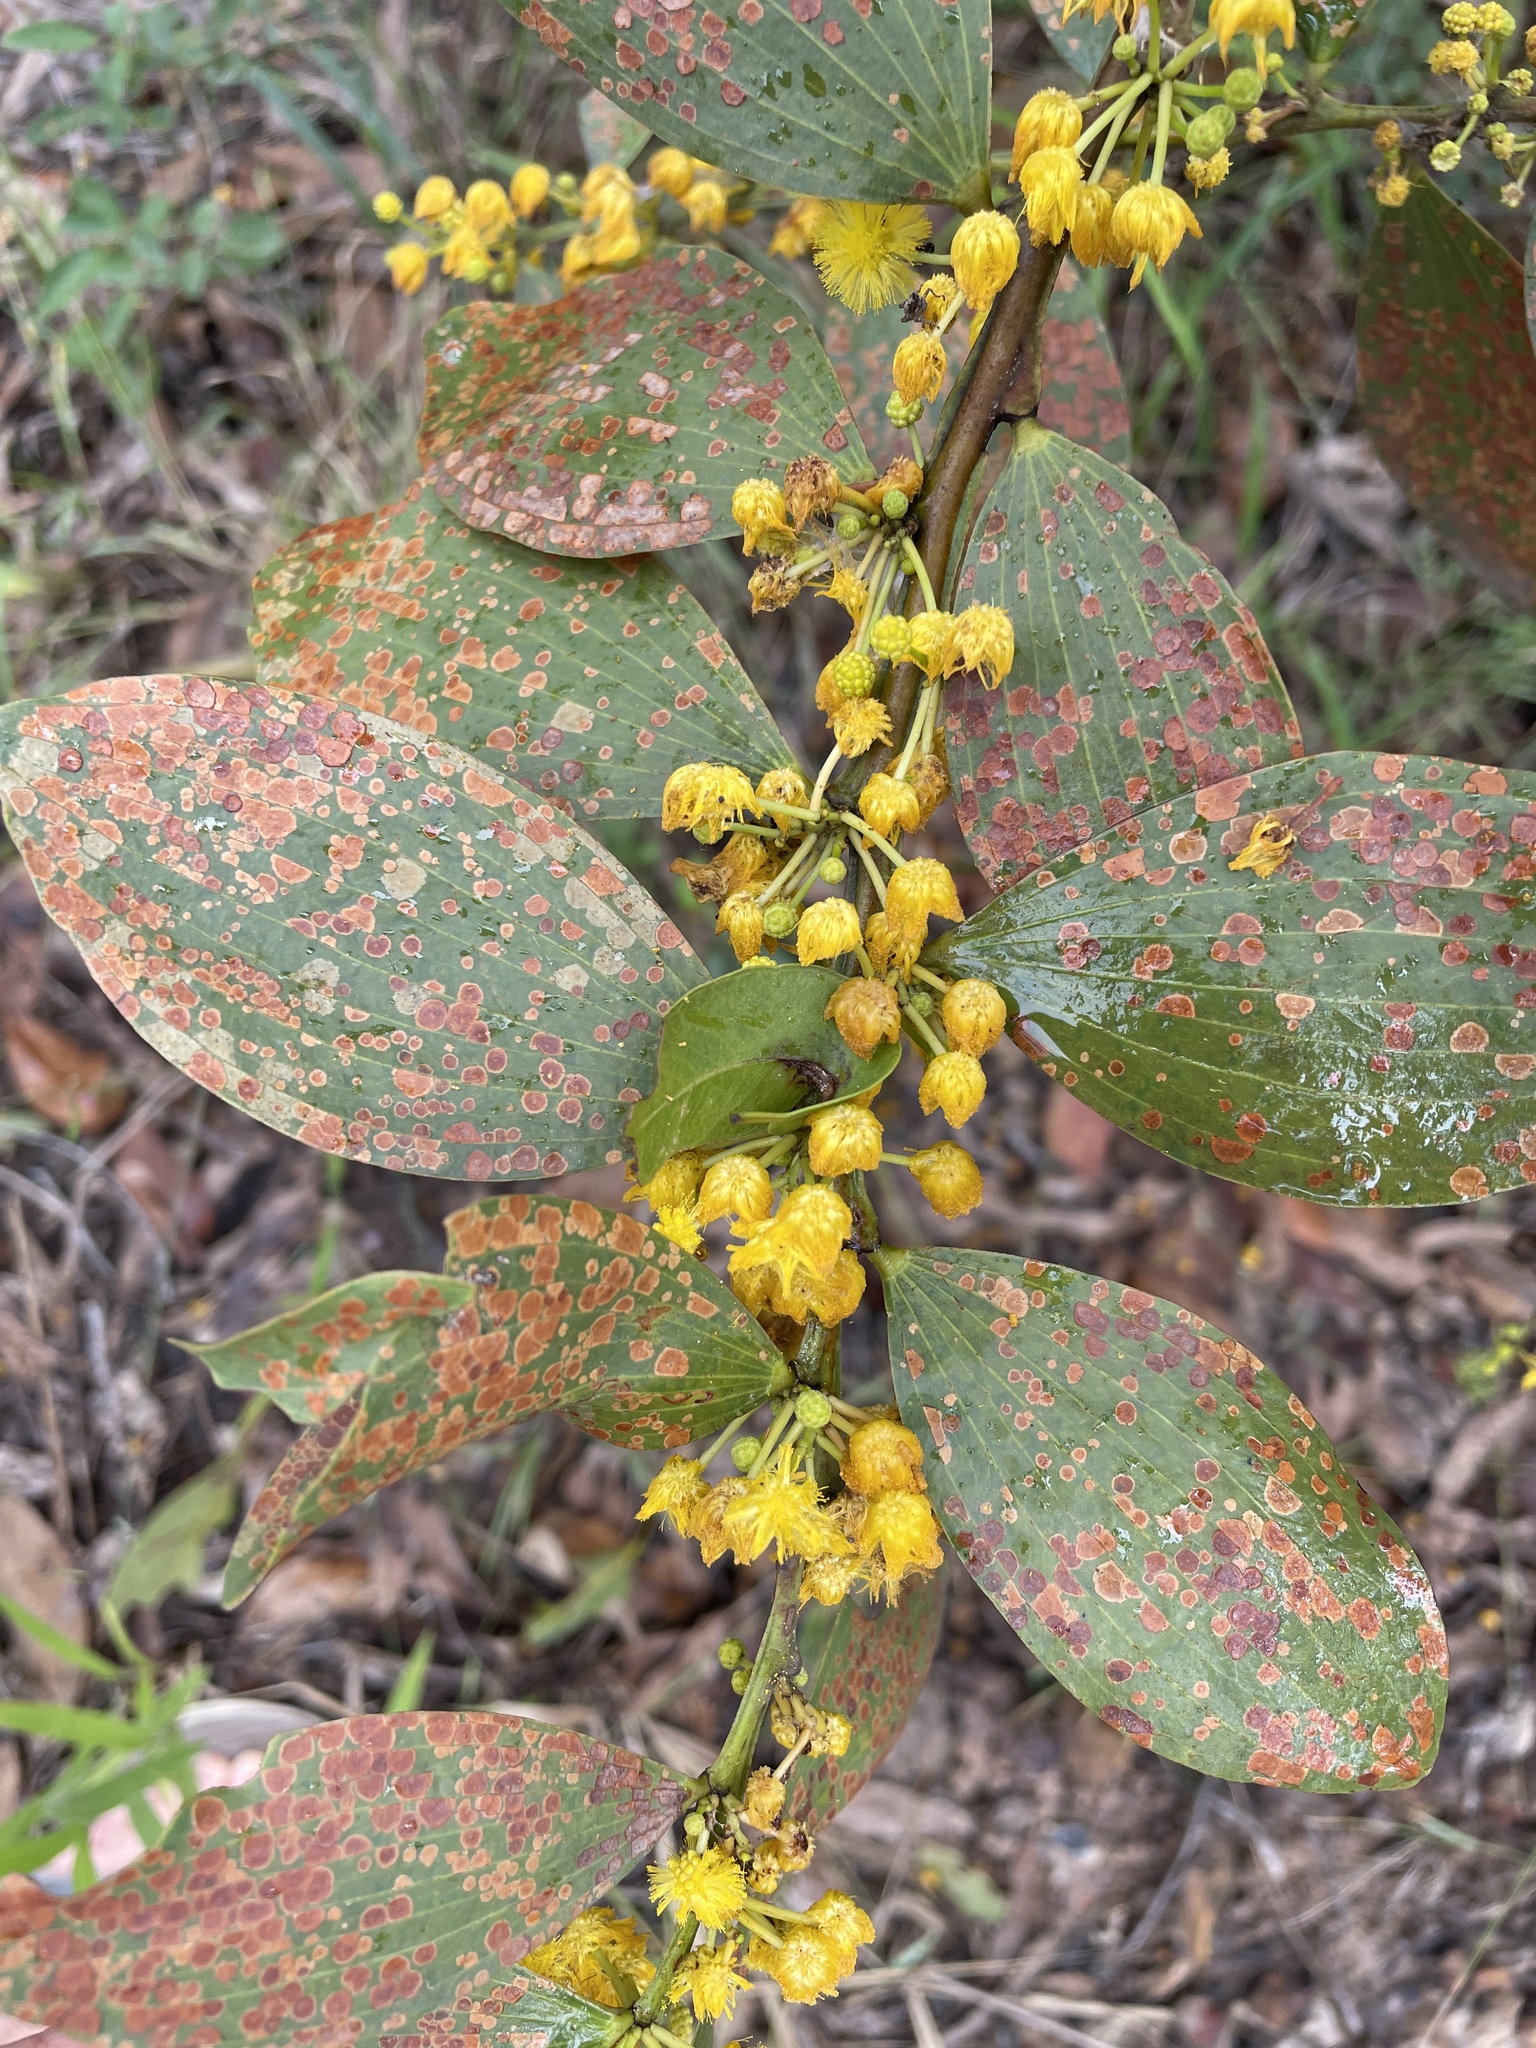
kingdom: Plantae
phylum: Tracheophyta
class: Magnoliopsida
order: Fabales
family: Fabaceae
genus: Acacia
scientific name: Acacia complanata
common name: Flat-stemmed wattle
